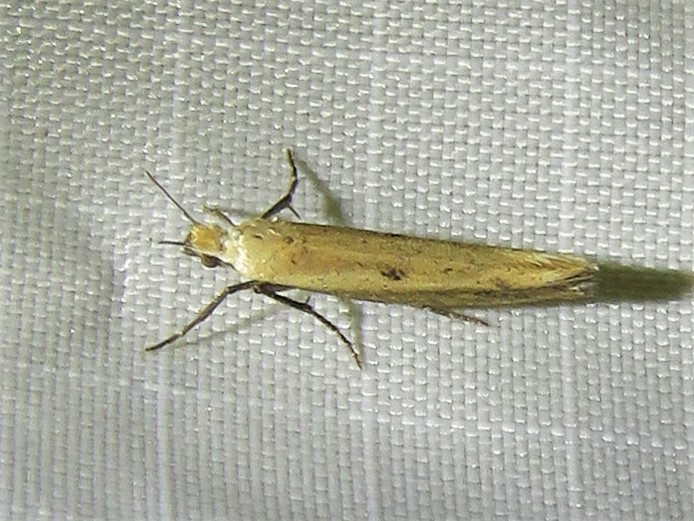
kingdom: Animalia
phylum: Arthropoda
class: Insecta
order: Lepidoptera
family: Ypsolophidae
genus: Ypsolopha
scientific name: Ypsolopha unicipunctella
